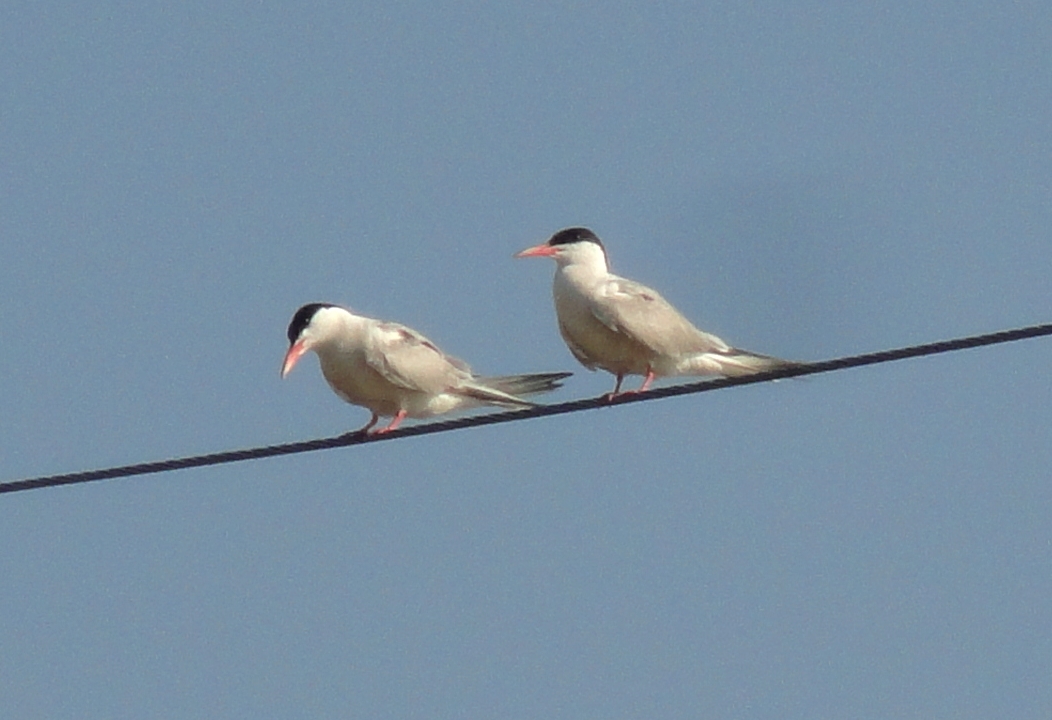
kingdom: Animalia
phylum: Chordata
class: Aves
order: Charadriiformes
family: Laridae
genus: Sterna
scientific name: Sterna hirundo
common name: Common tern
